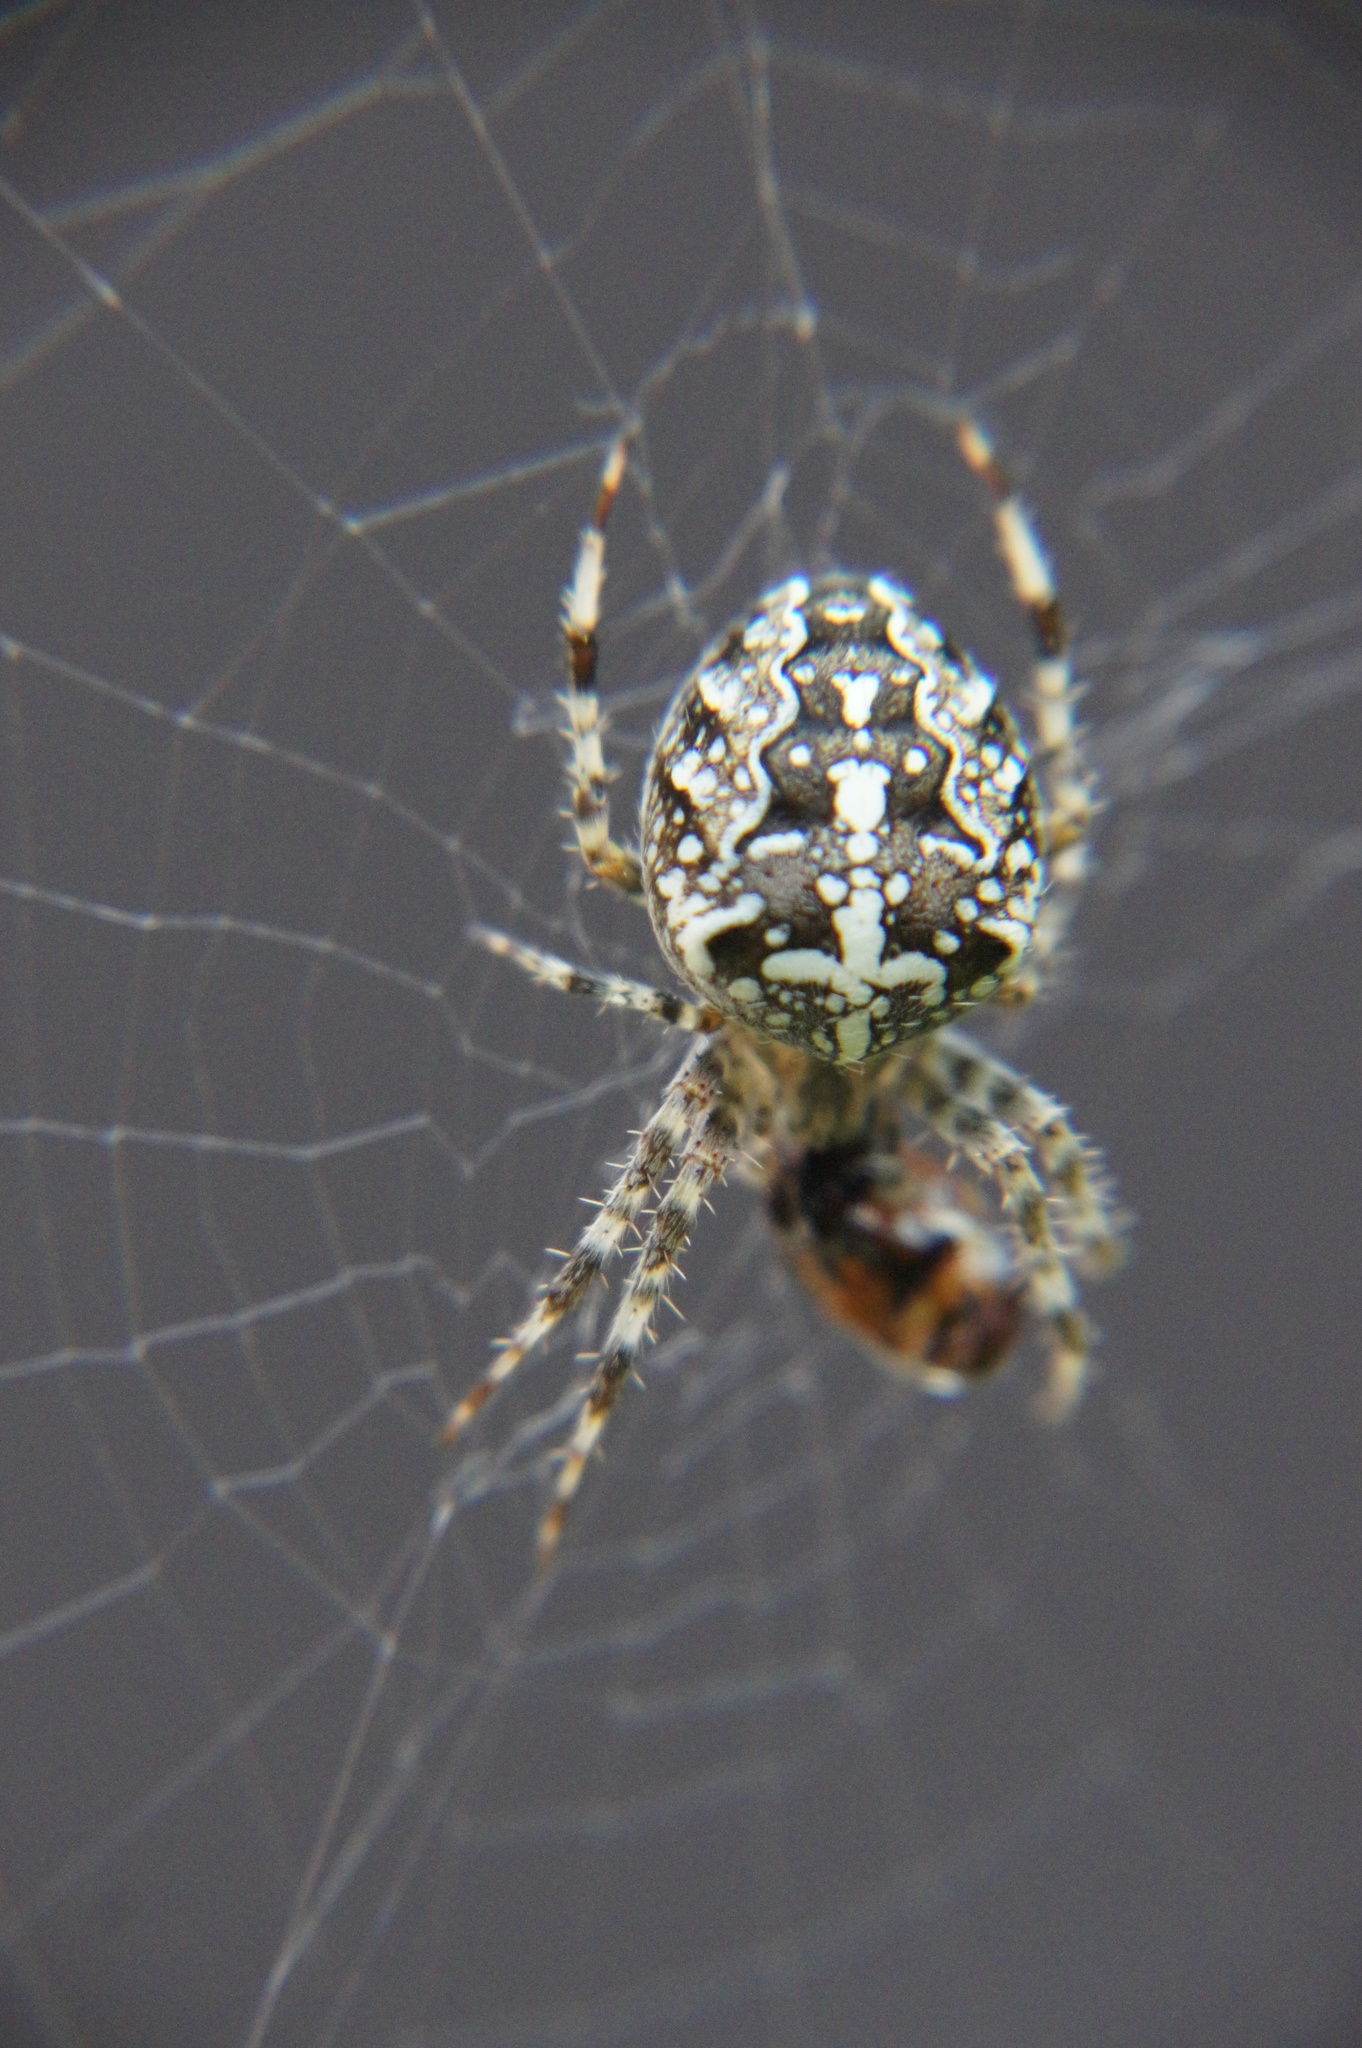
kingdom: Animalia
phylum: Arthropoda
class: Arachnida
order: Araneae
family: Araneidae
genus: Araneus
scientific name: Araneus diadematus
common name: Cross orbweaver
